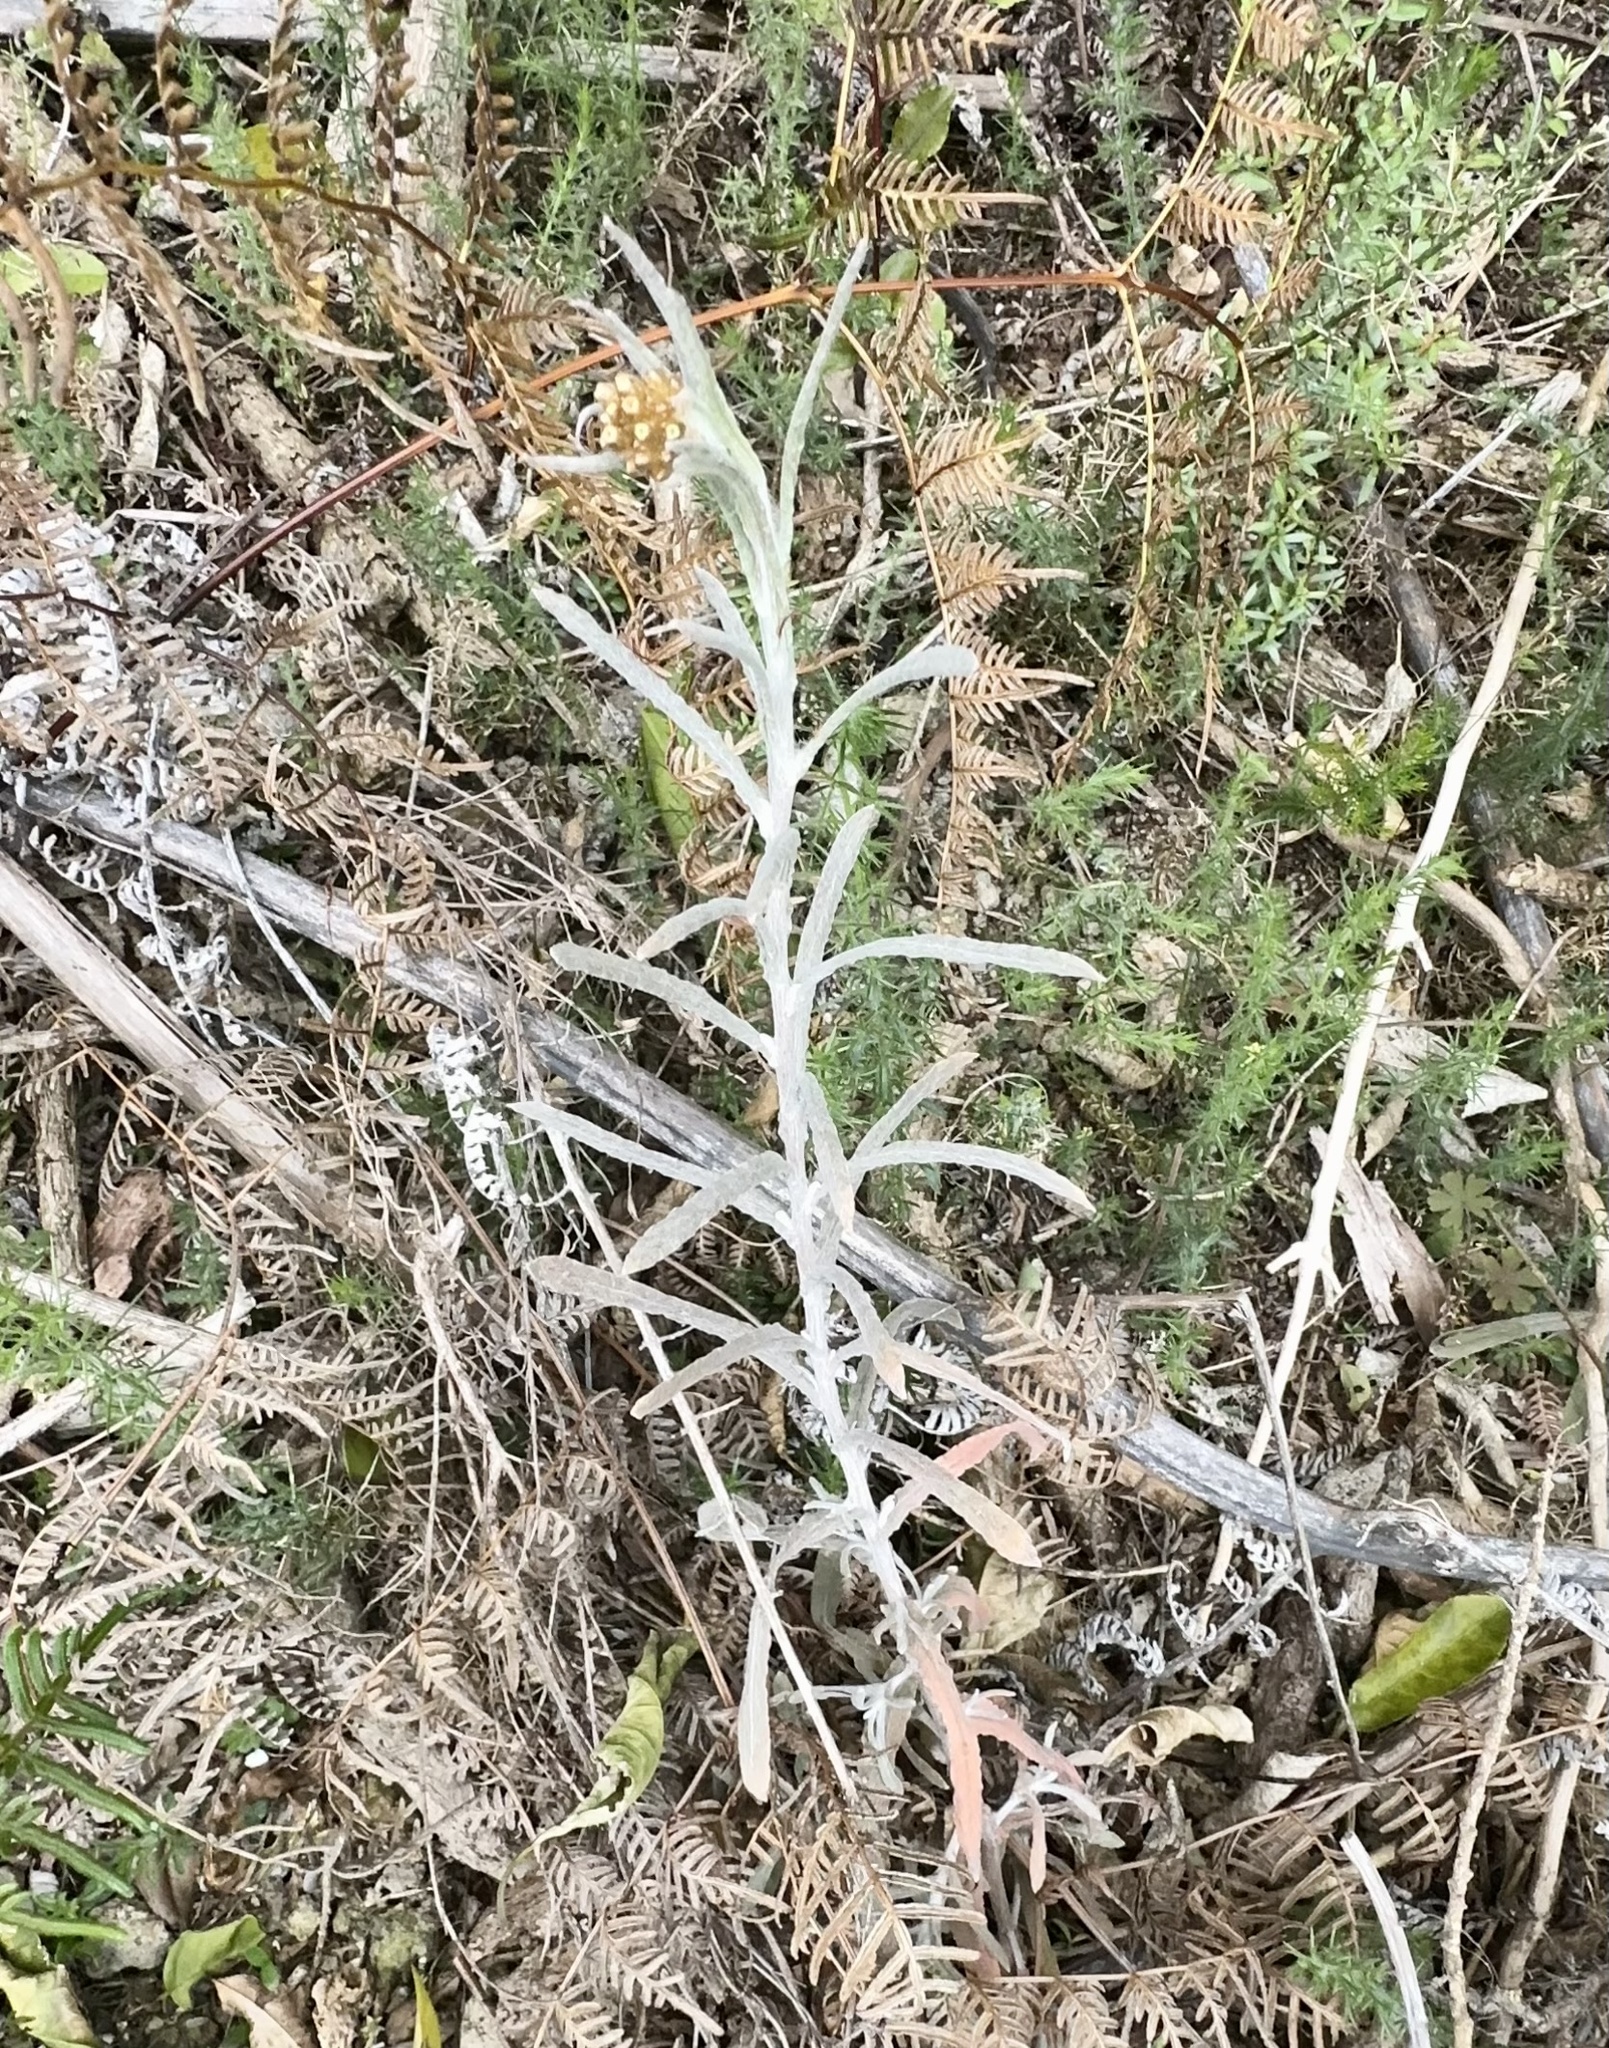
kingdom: Plantae
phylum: Tracheophyta
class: Magnoliopsida
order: Asterales
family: Asteraceae
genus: Pseudognaphalium
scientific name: Pseudognaphalium
